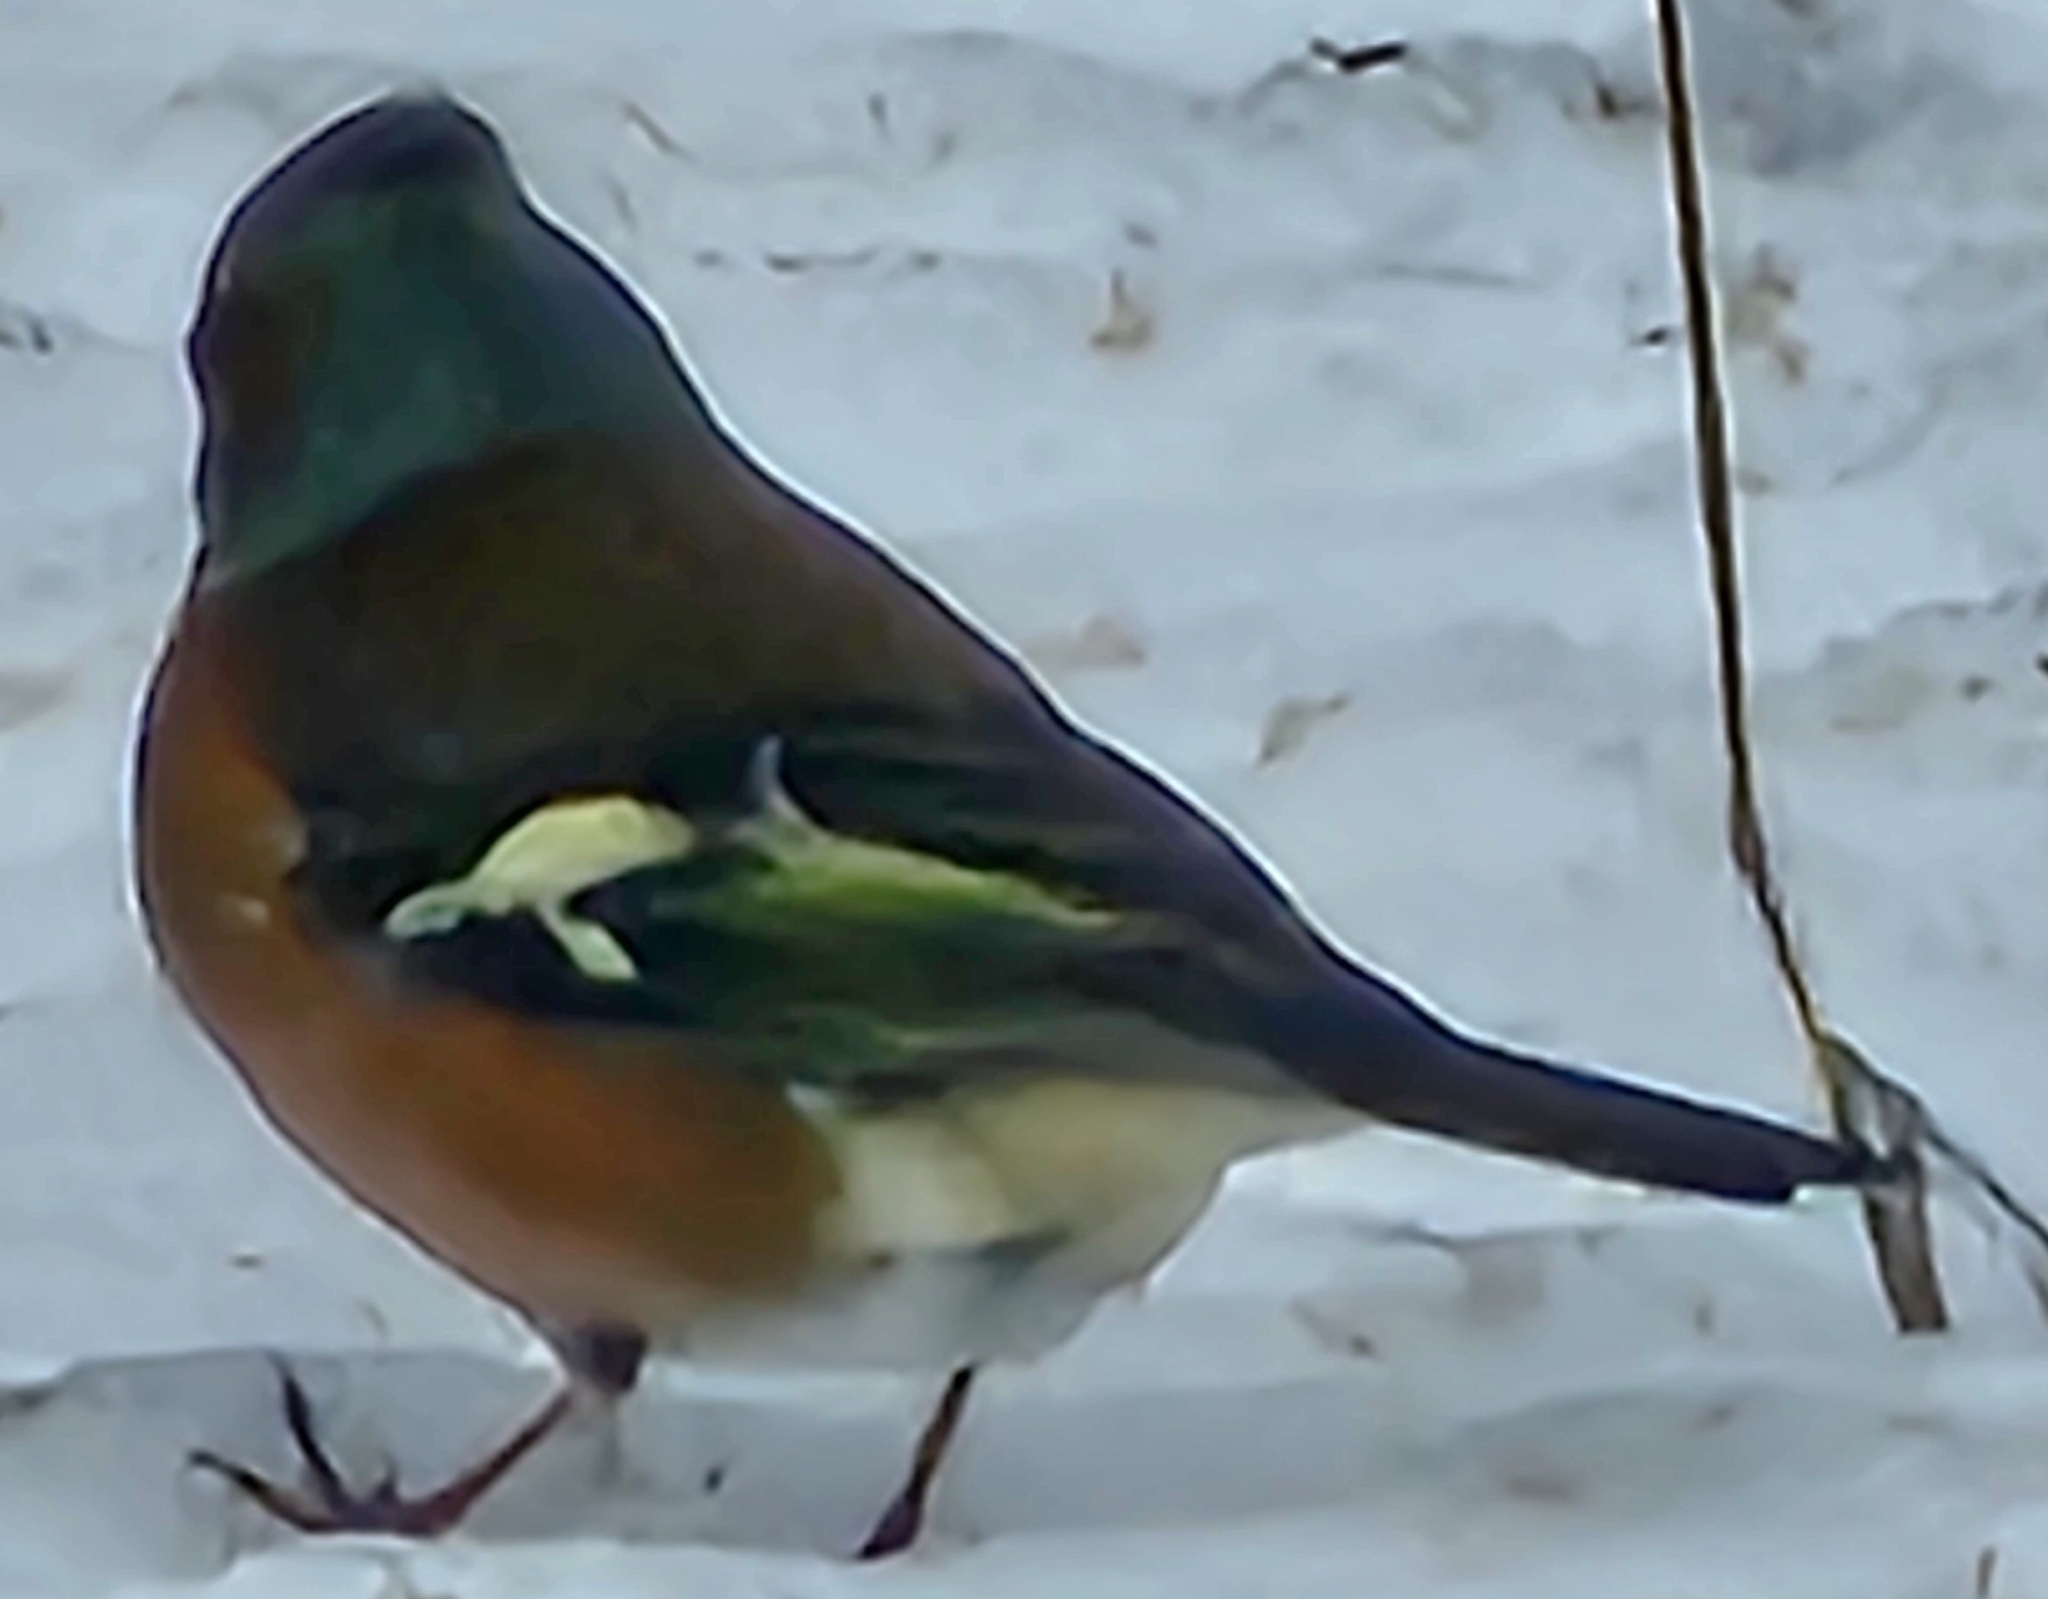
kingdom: Animalia
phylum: Chordata
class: Aves
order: Passeriformes
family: Fringillidae
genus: Fringilla
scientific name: Fringilla coelebs
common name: Common chaffinch
